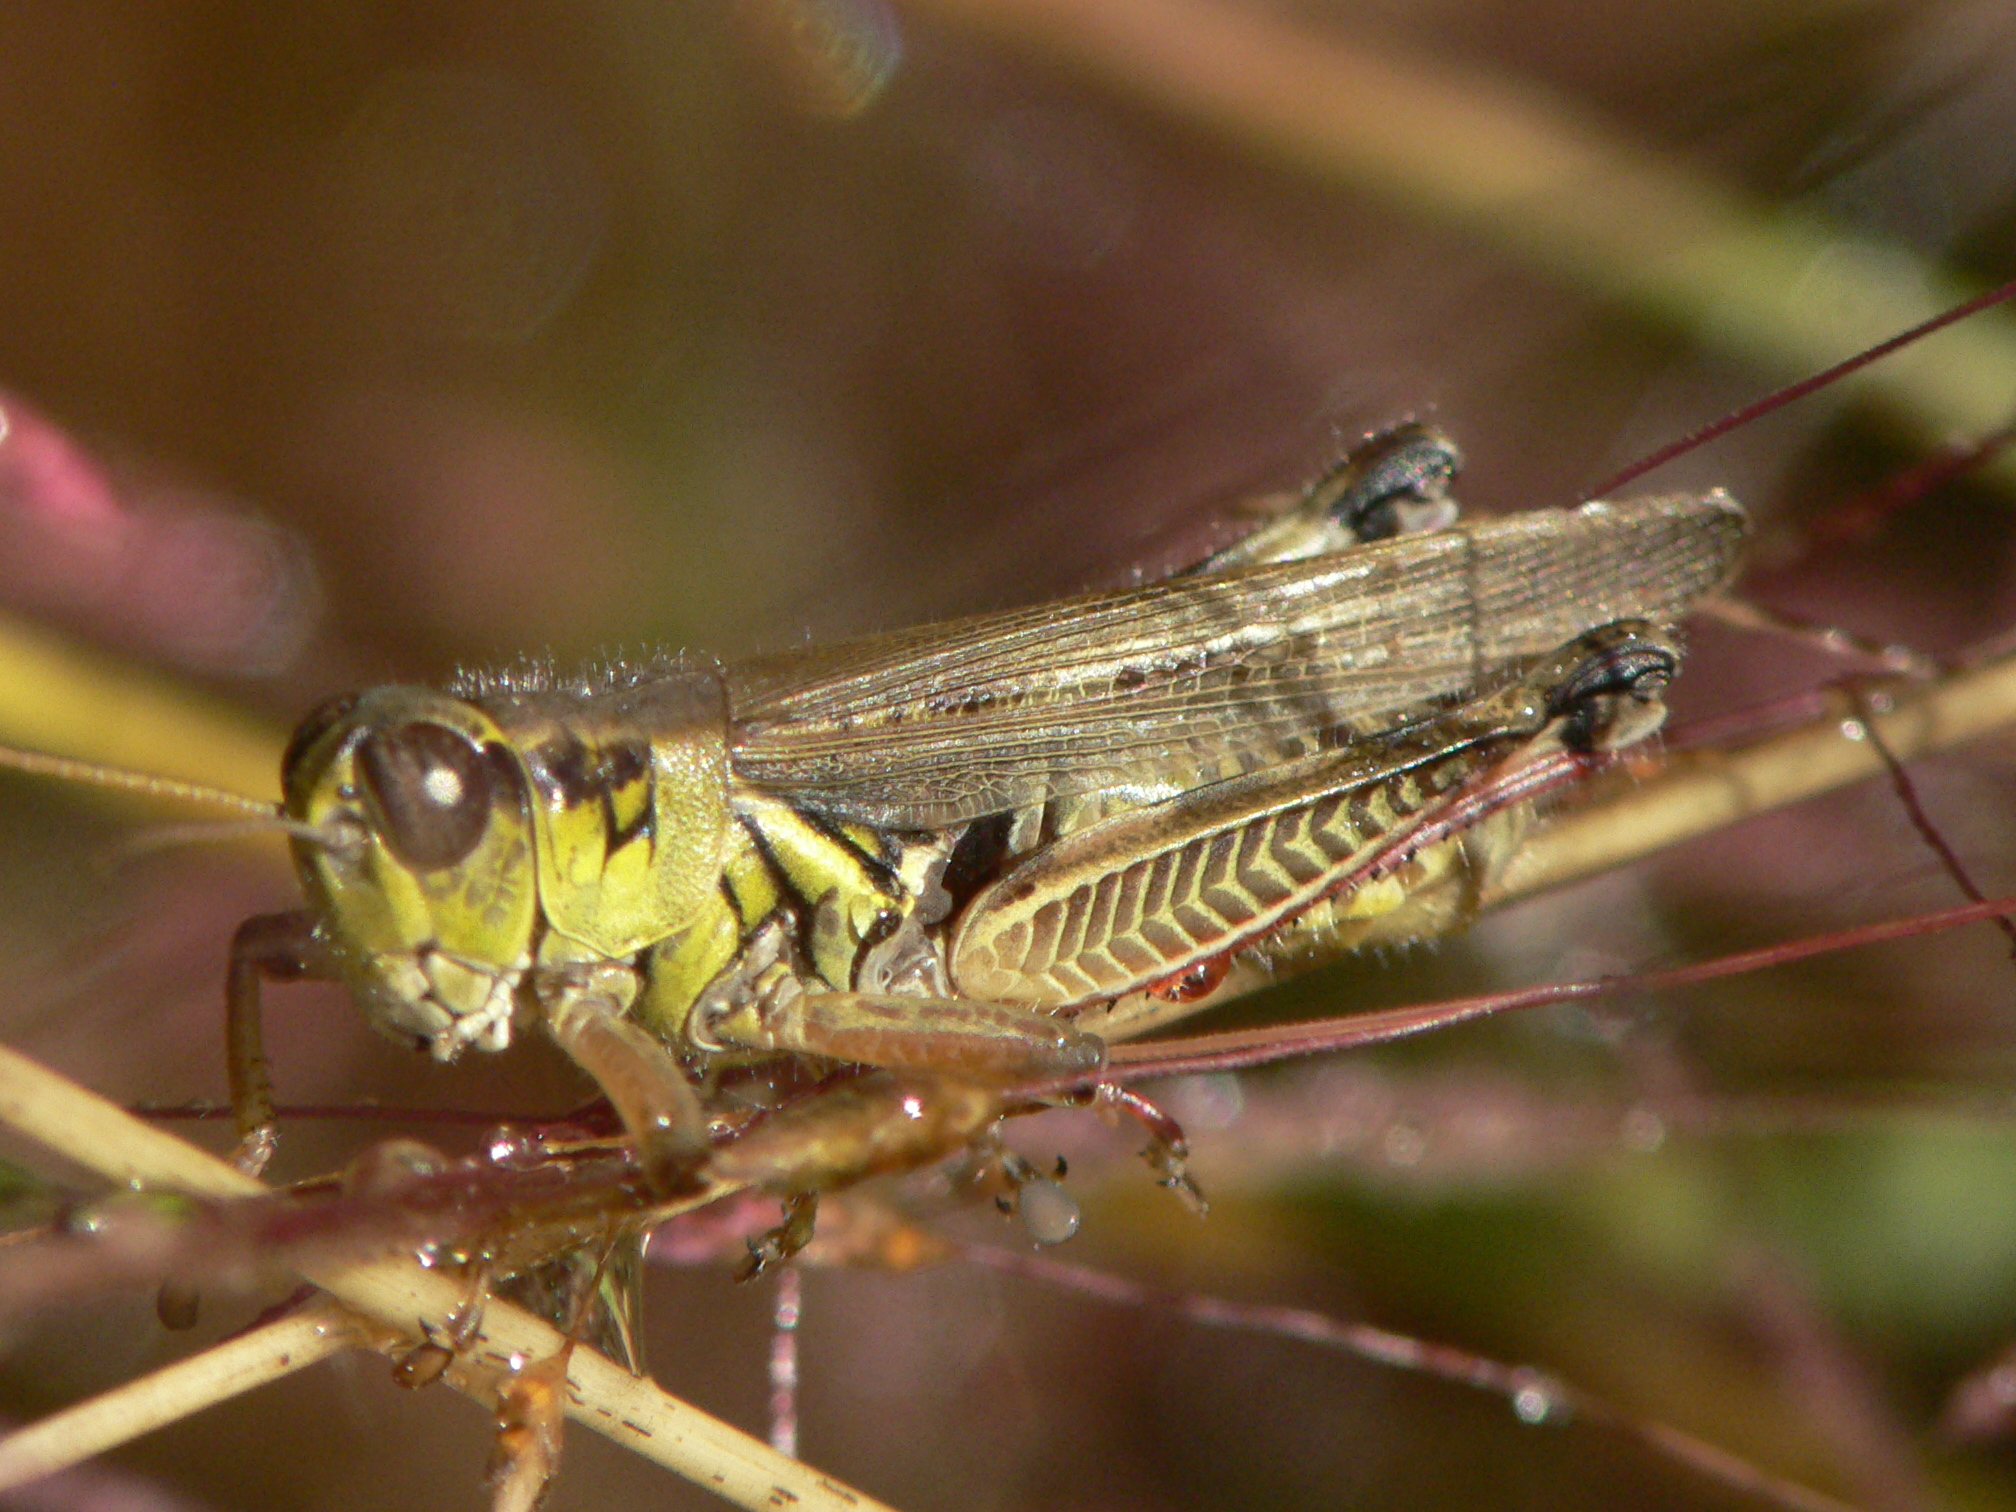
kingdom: Animalia
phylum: Arthropoda
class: Insecta
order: Orthoptera
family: Acrididae
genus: Melanoplus
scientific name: Melanoplus femurrubrum
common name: Red-legged grasshopper
